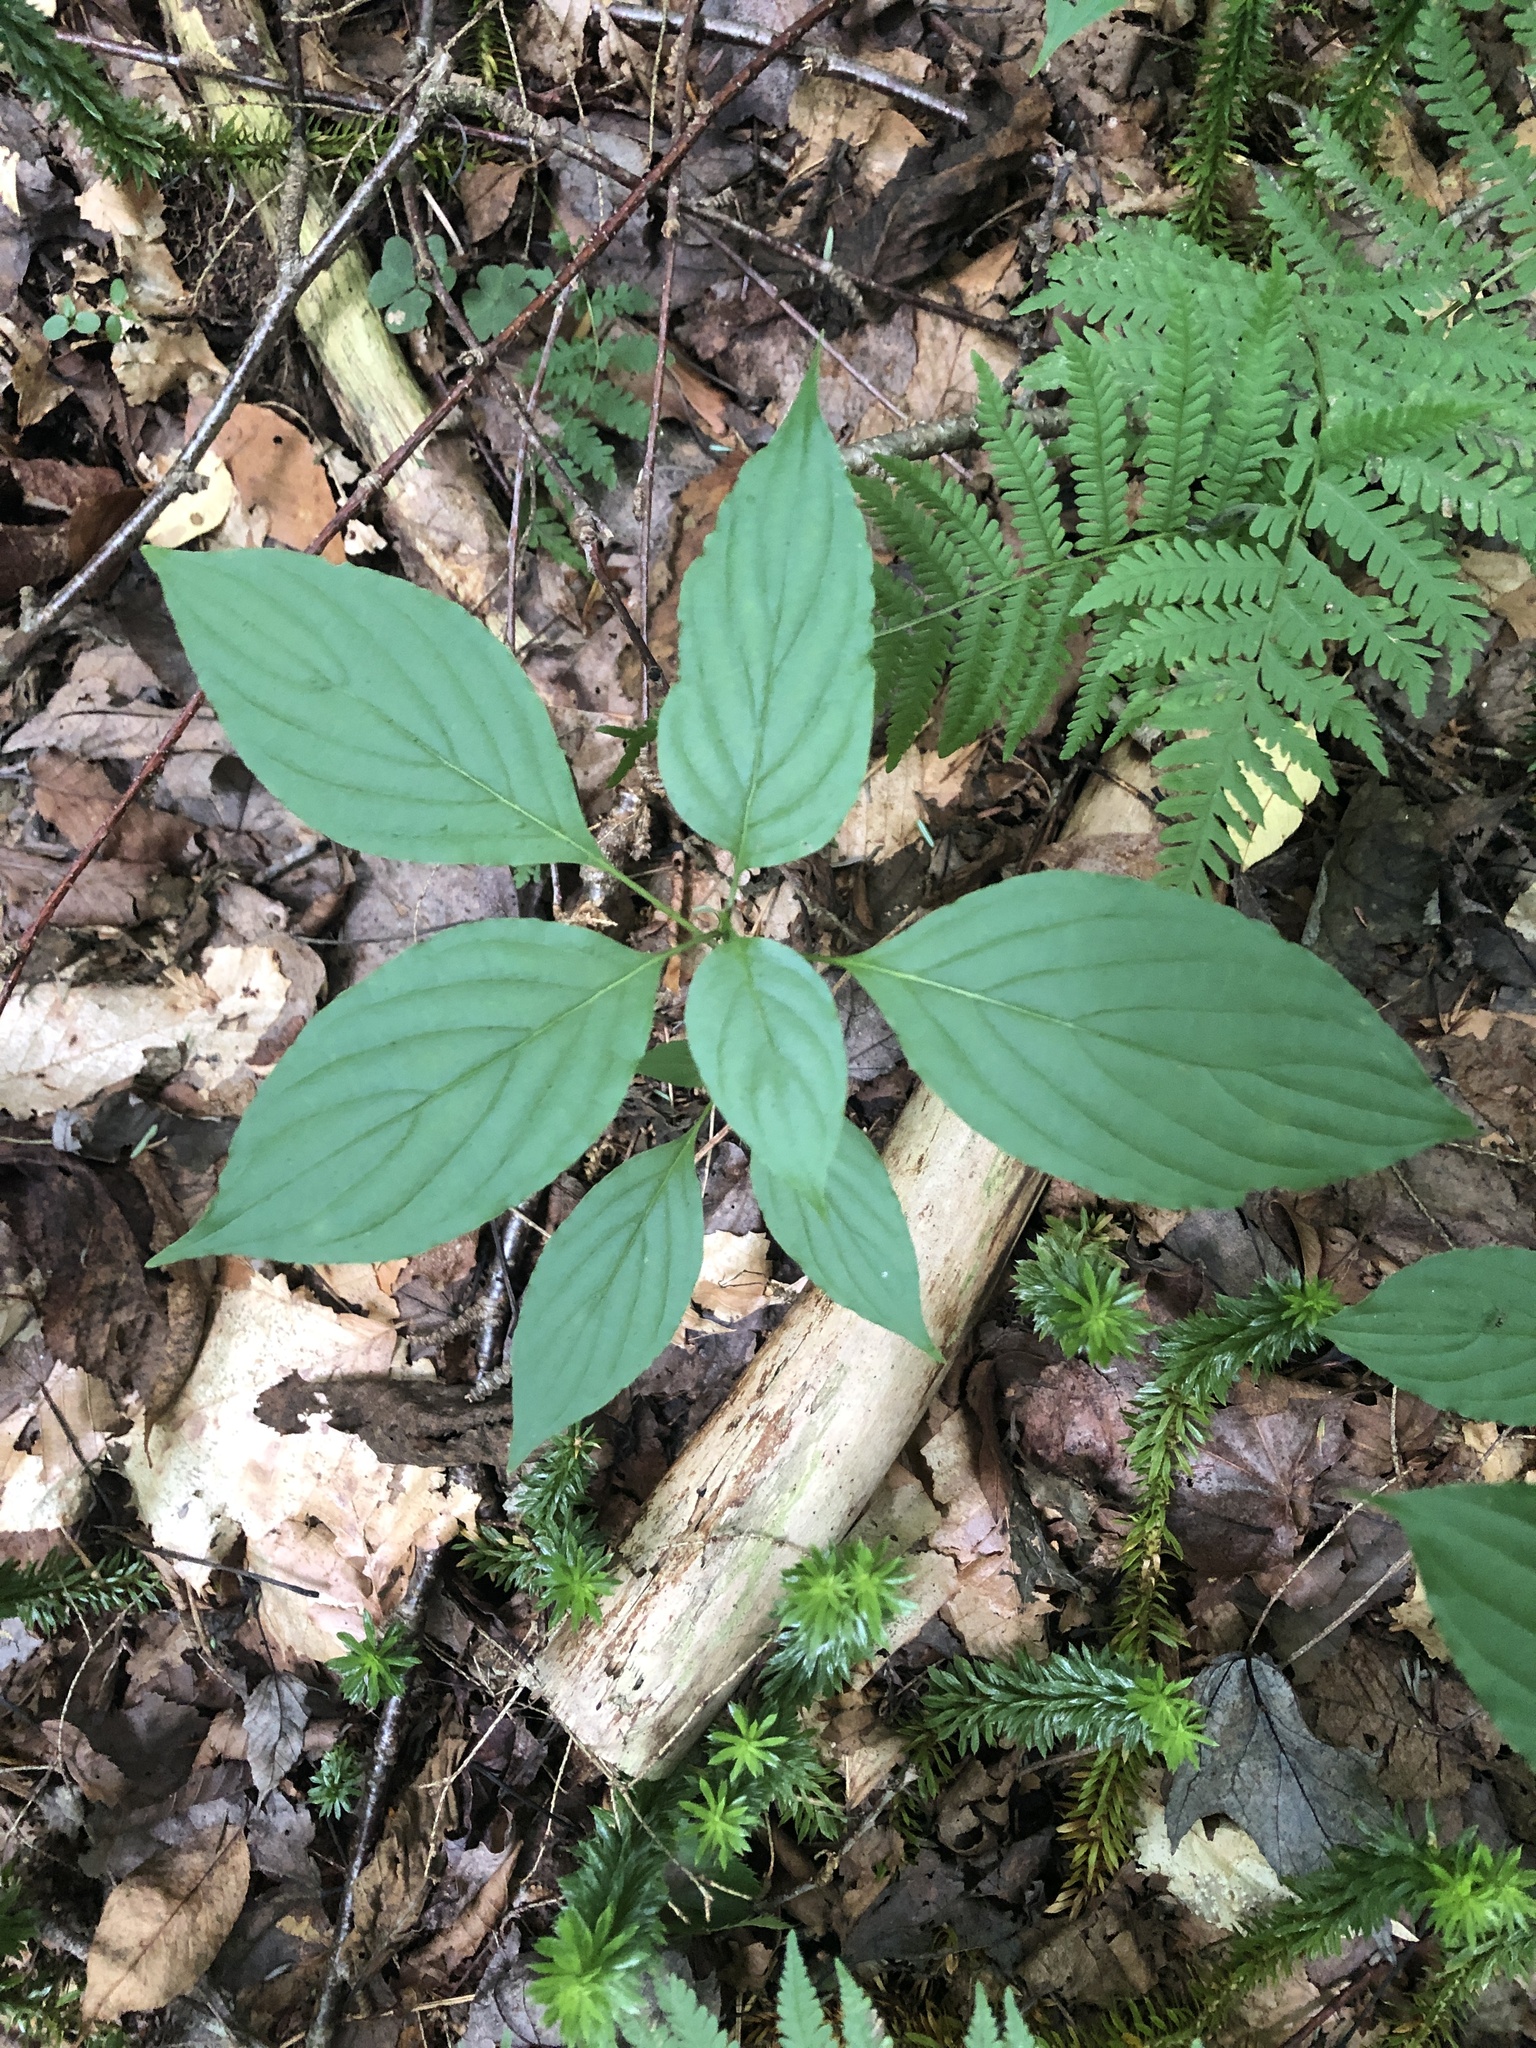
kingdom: Plantae
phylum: Tracheophyta
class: Magnoliopsida
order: Cornales
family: Cornaceae
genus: Cornus
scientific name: Cornus alternifolia
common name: Pagoda dogwood
